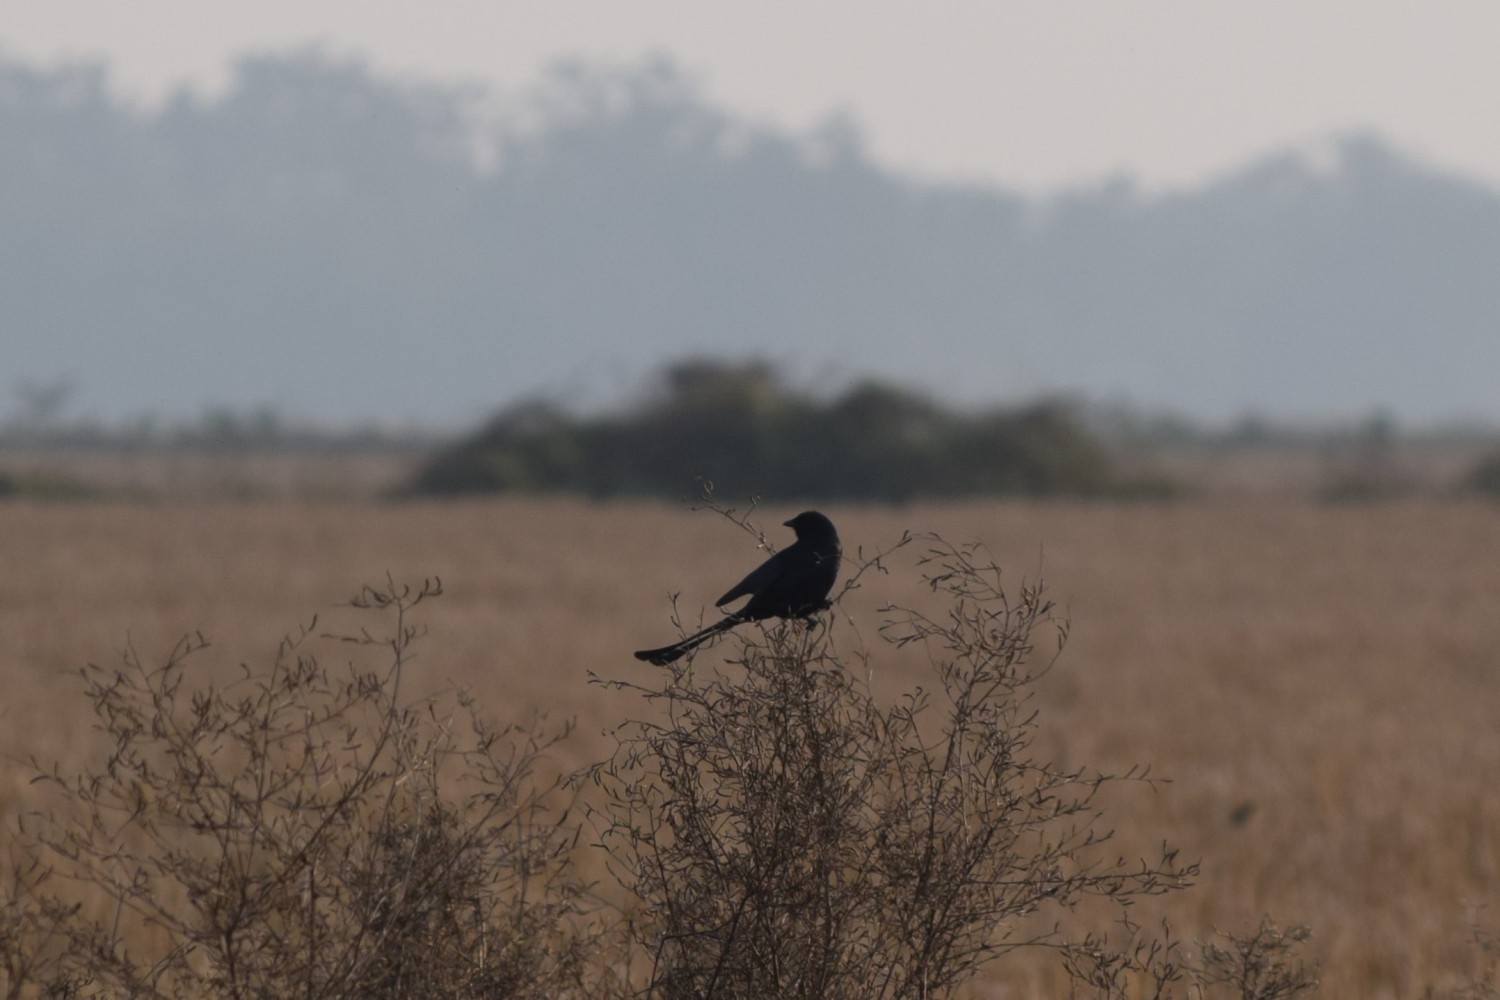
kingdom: Animalia
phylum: Chordata
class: Aves
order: Passeriformes
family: Dicruridae
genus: Dicrurus
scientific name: Dicrurus macrocercus
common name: Black drongo
